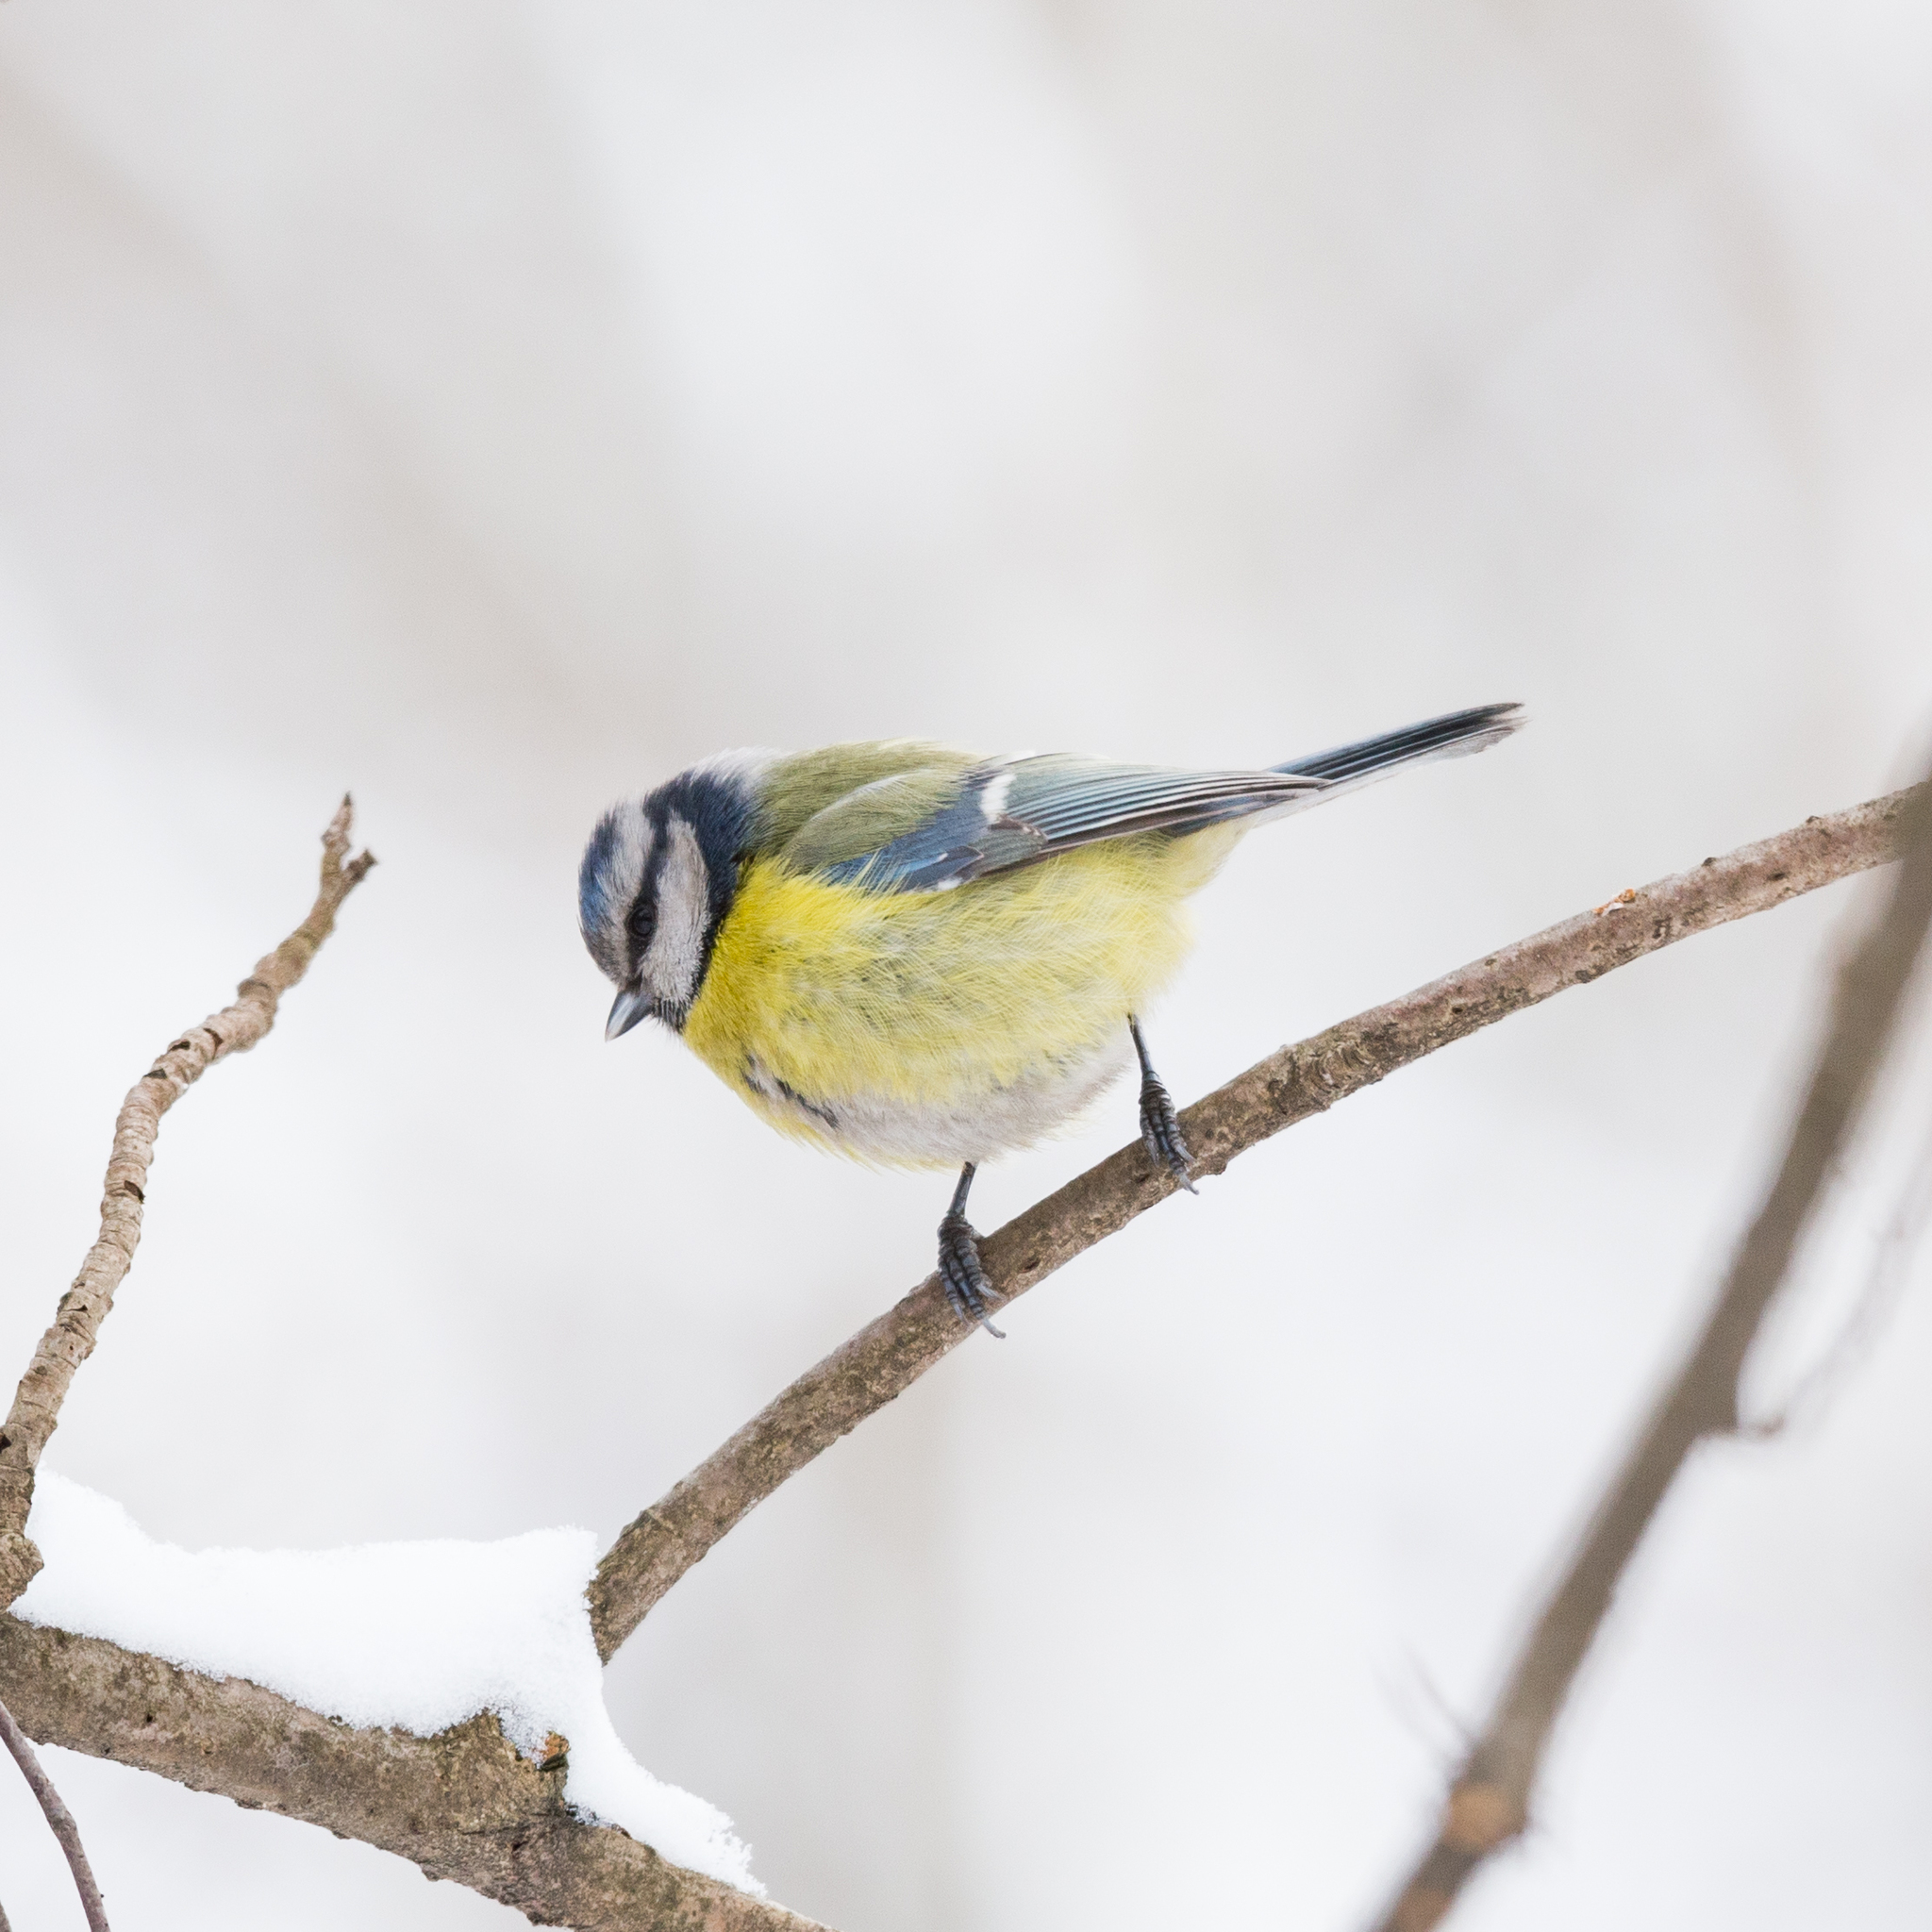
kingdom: Animalia
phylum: Chordata
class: Aves
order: Passeriformes
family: Paridae
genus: Cyanistes
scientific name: Cyanistes caeruleus
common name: Eurasian blue tit
